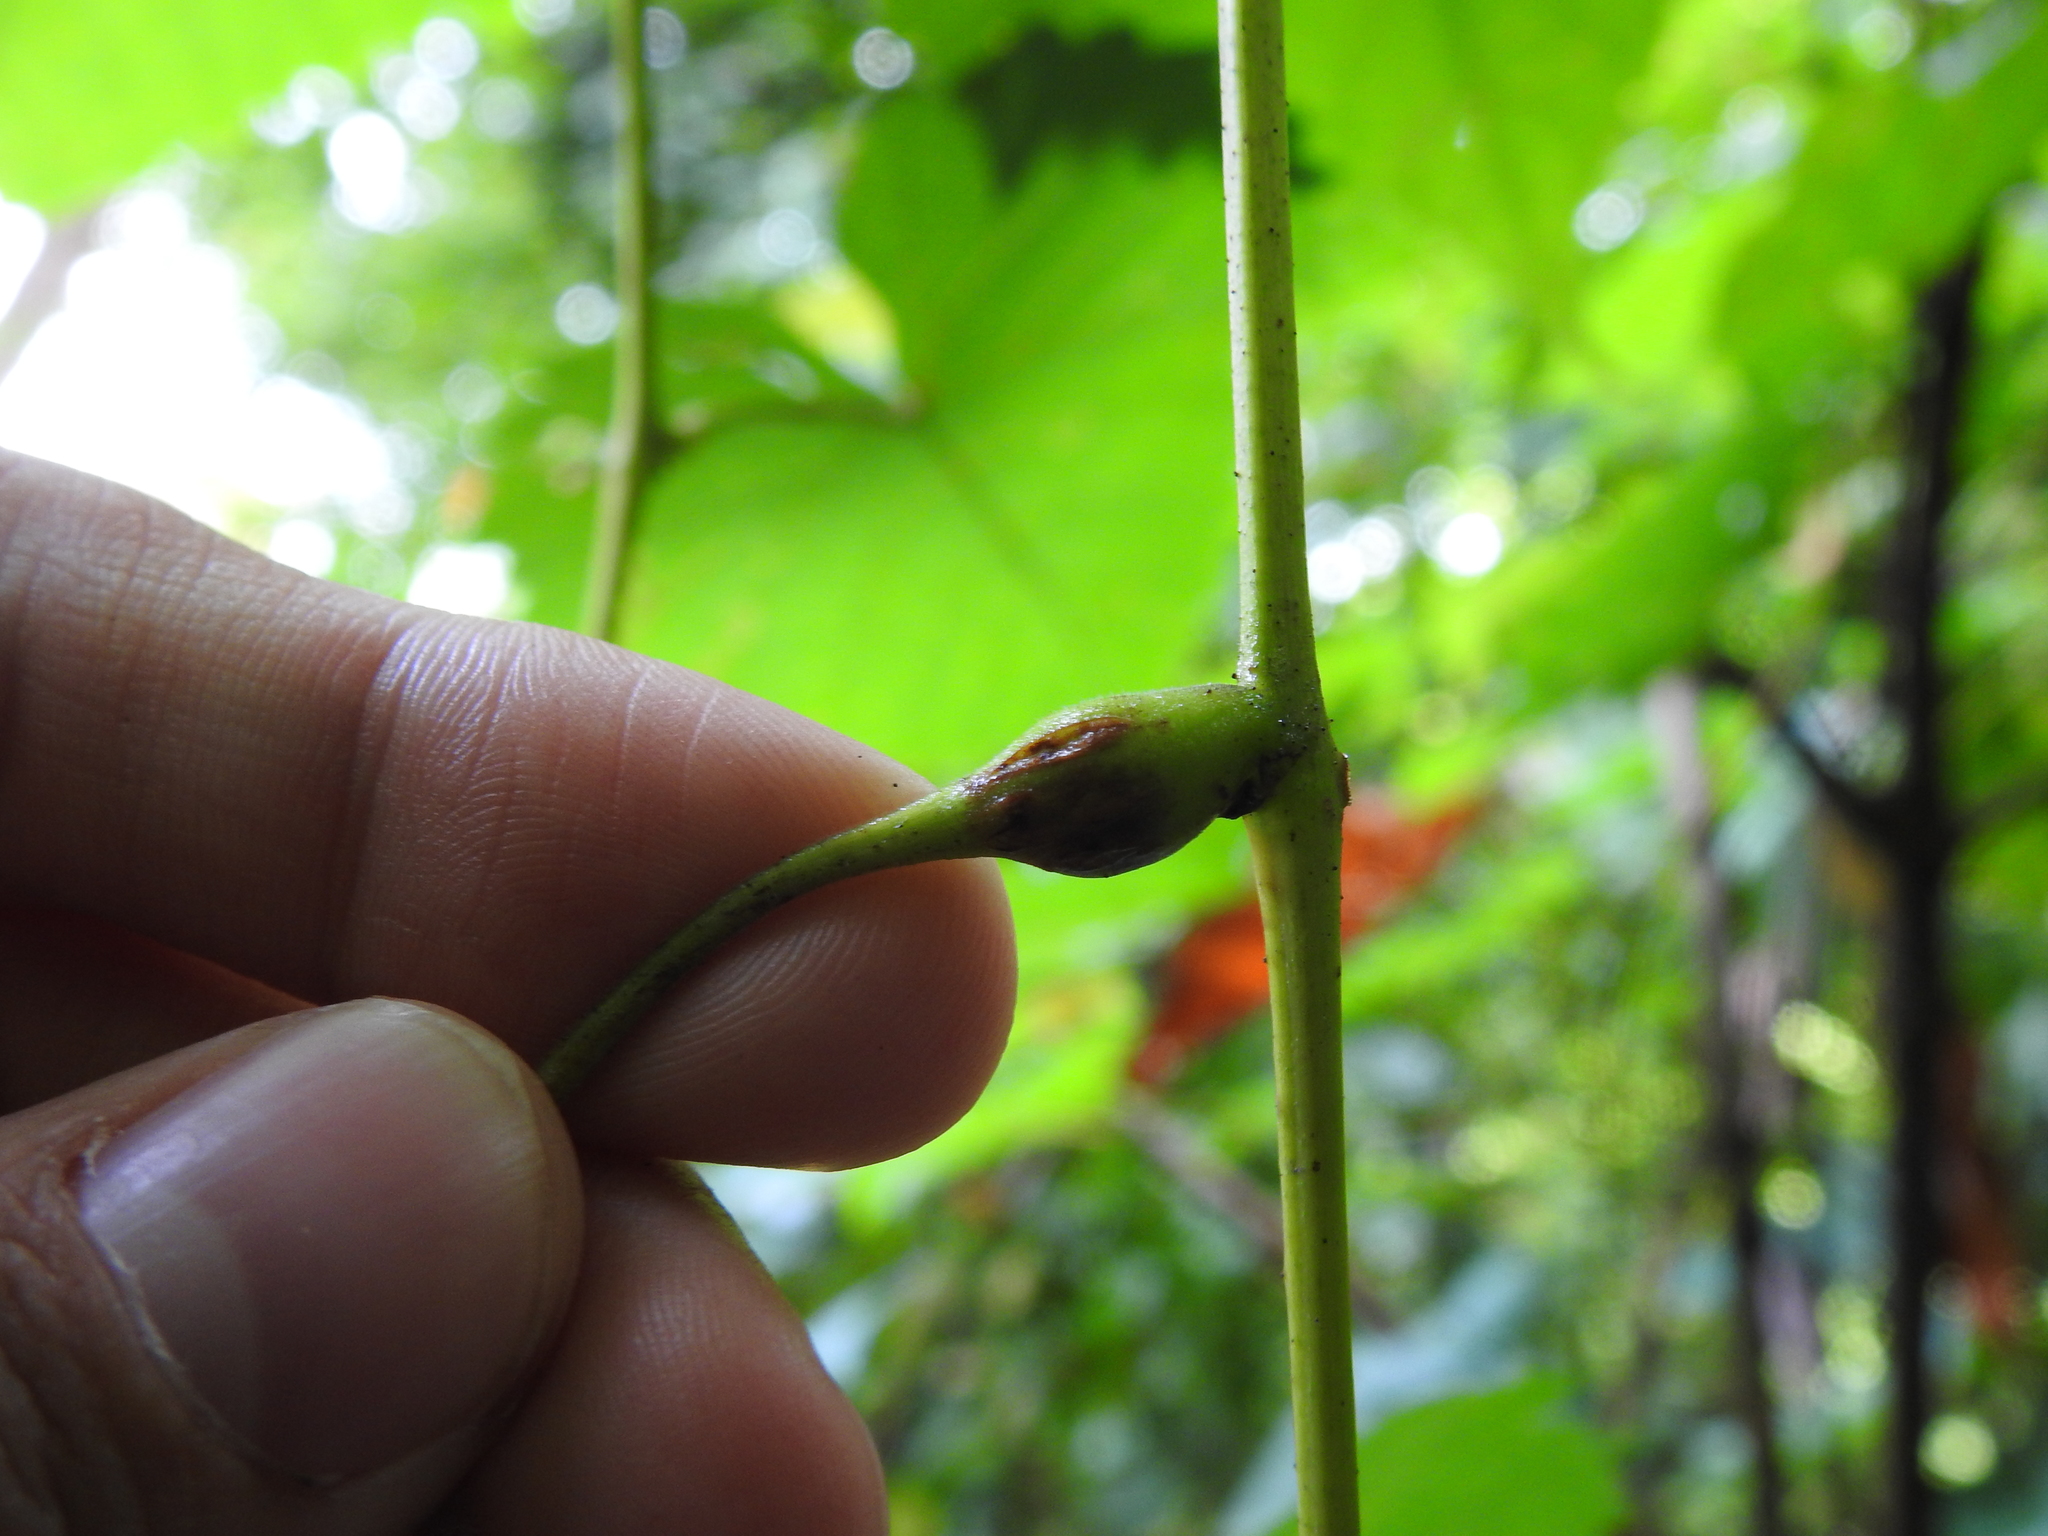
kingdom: Animalia
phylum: Arthropoda
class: Insecta
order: Diptera
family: Cecidomyiidae
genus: Neolasioptera
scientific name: Neolasioptera vitinea
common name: Grape leaf petiole gall
